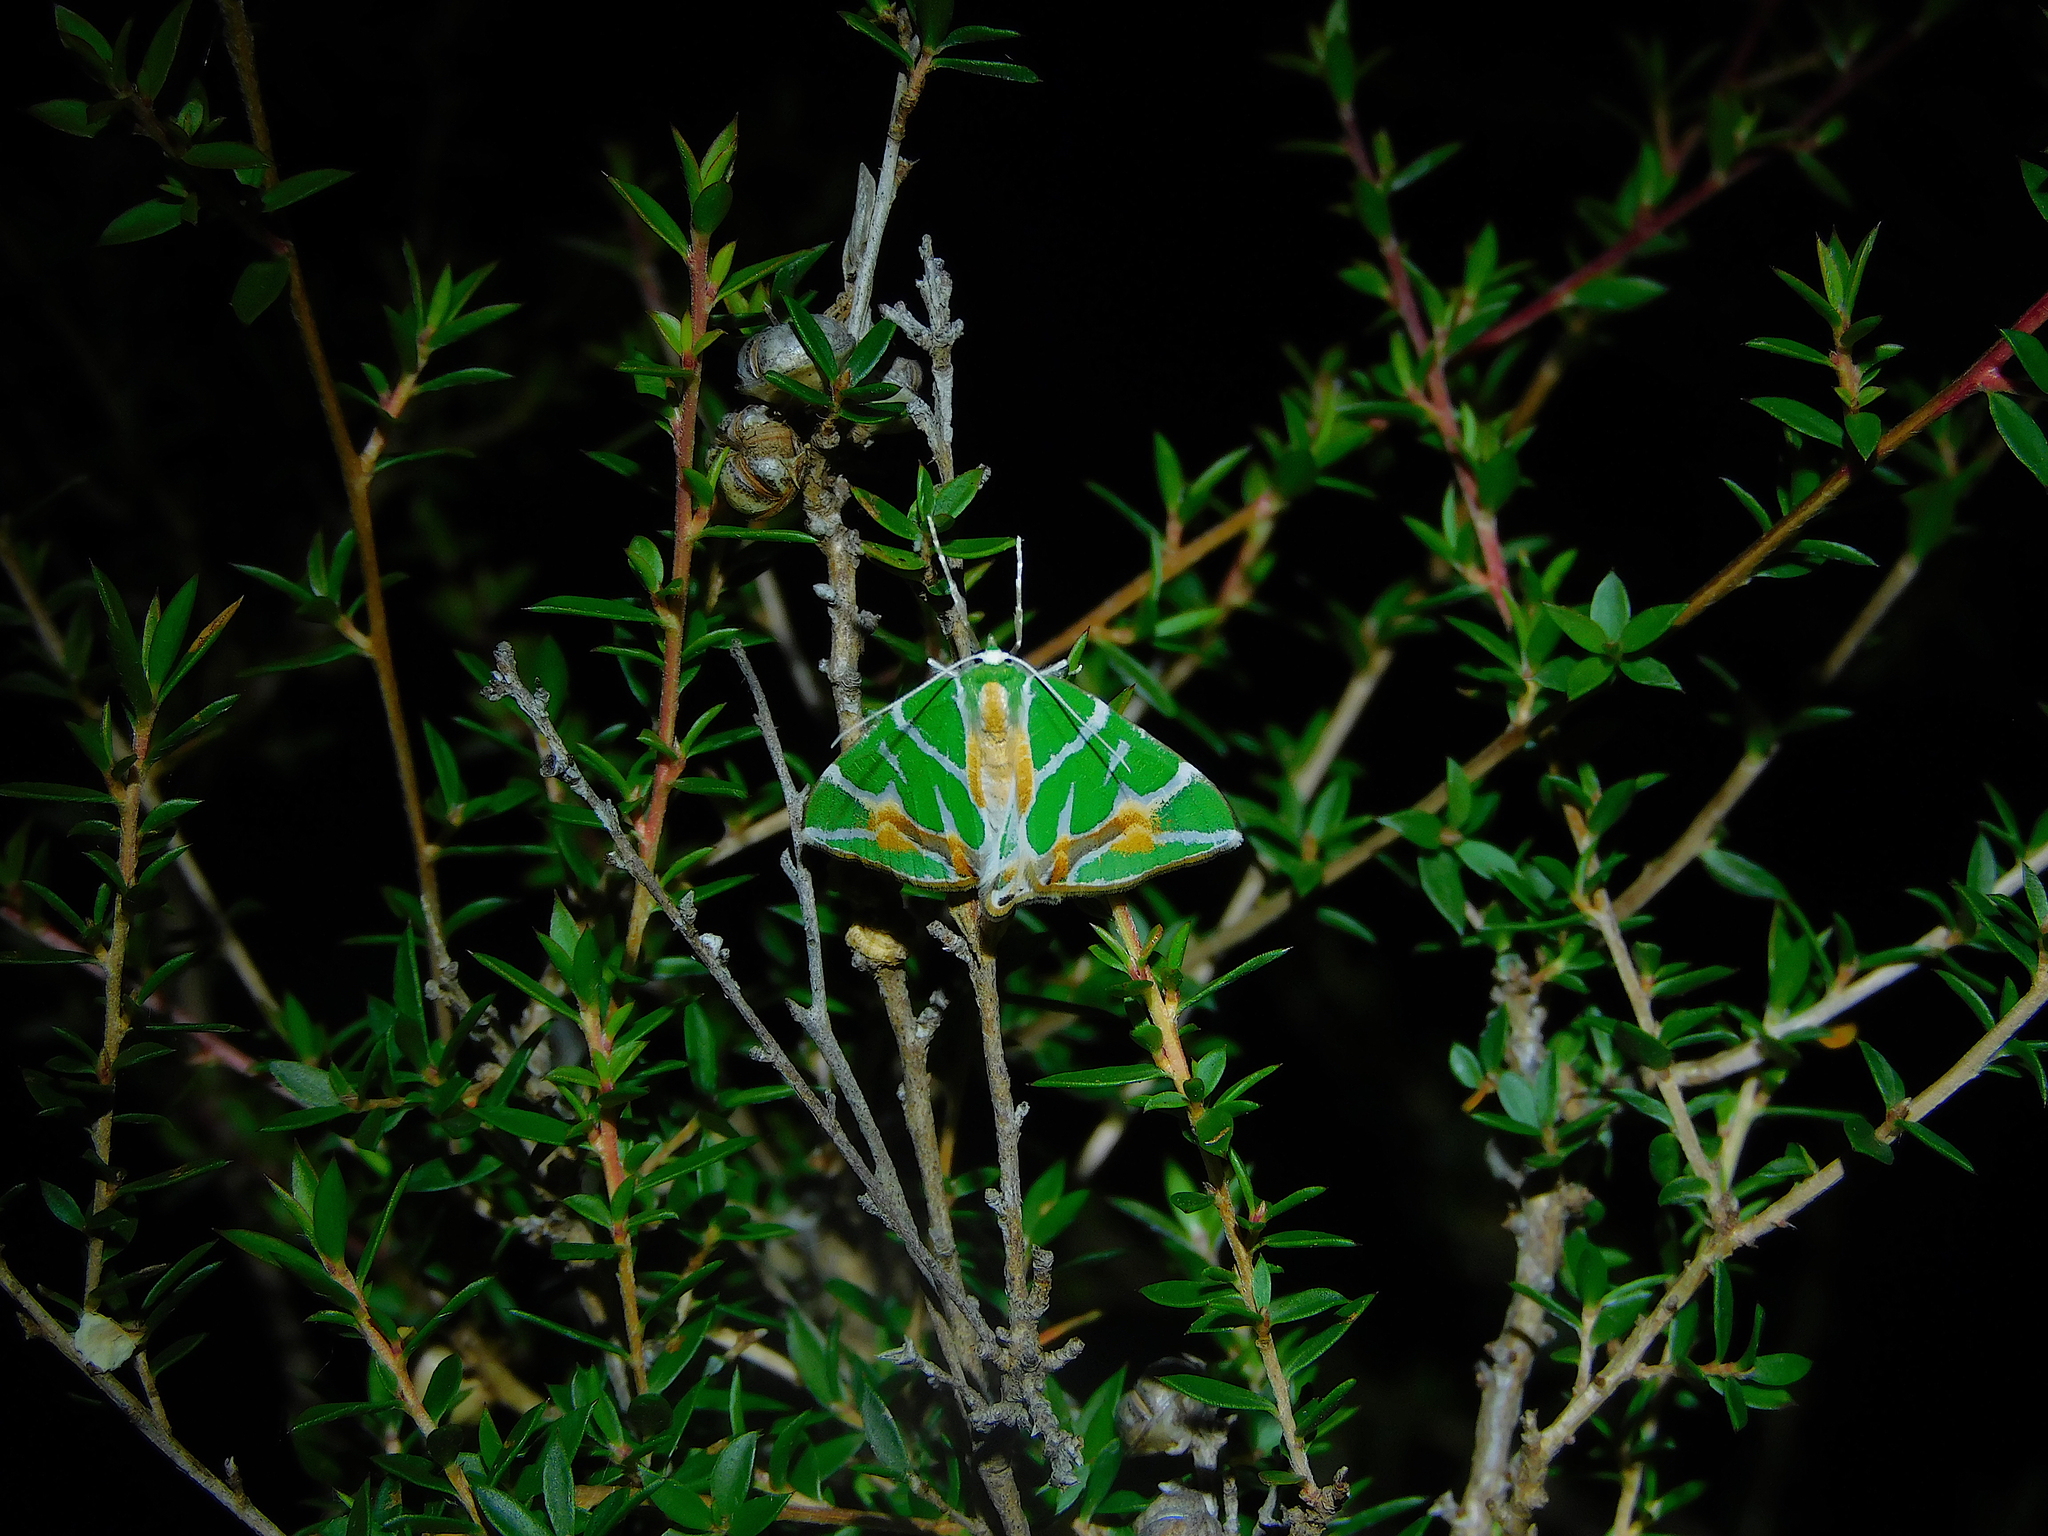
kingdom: Animalia
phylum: Arthropoda
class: Insecta
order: Lepidoptera
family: Geometridae
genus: Chlorodes
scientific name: Chlorodes boisduvalaria
